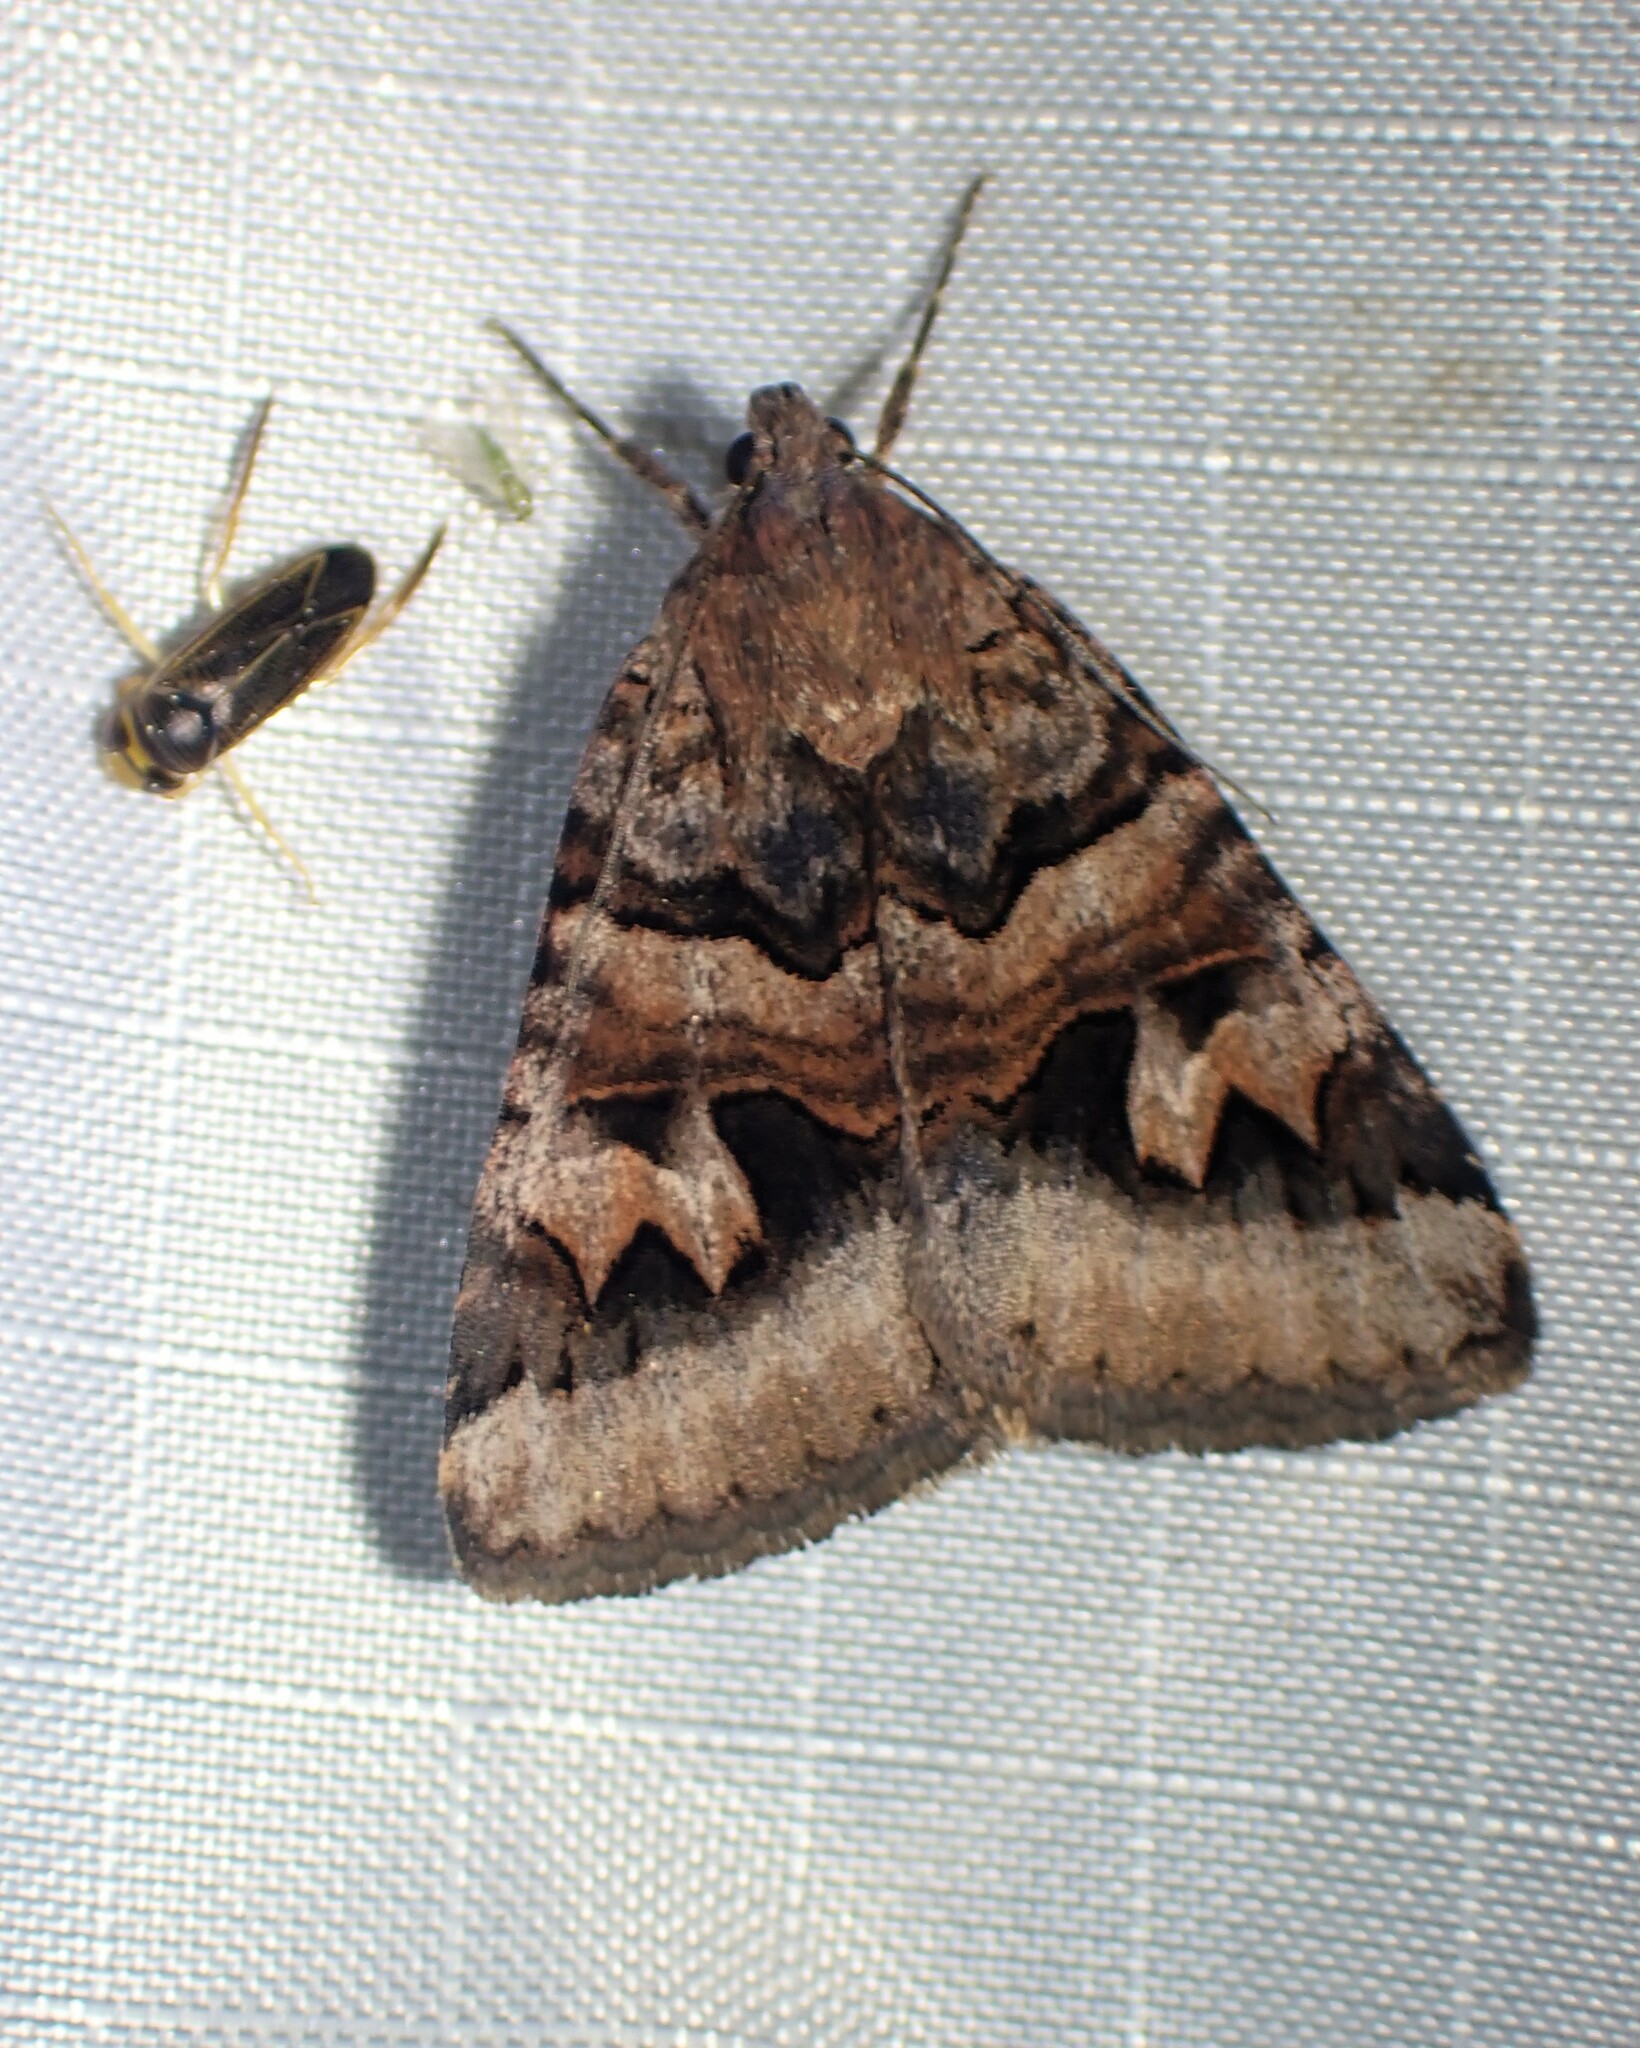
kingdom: Animalia
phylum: Arthropoda
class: Insecta
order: Lepidoptera
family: Erebidae
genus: Drasteria
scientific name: Drasteria adumbrata
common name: Shadowy arches
